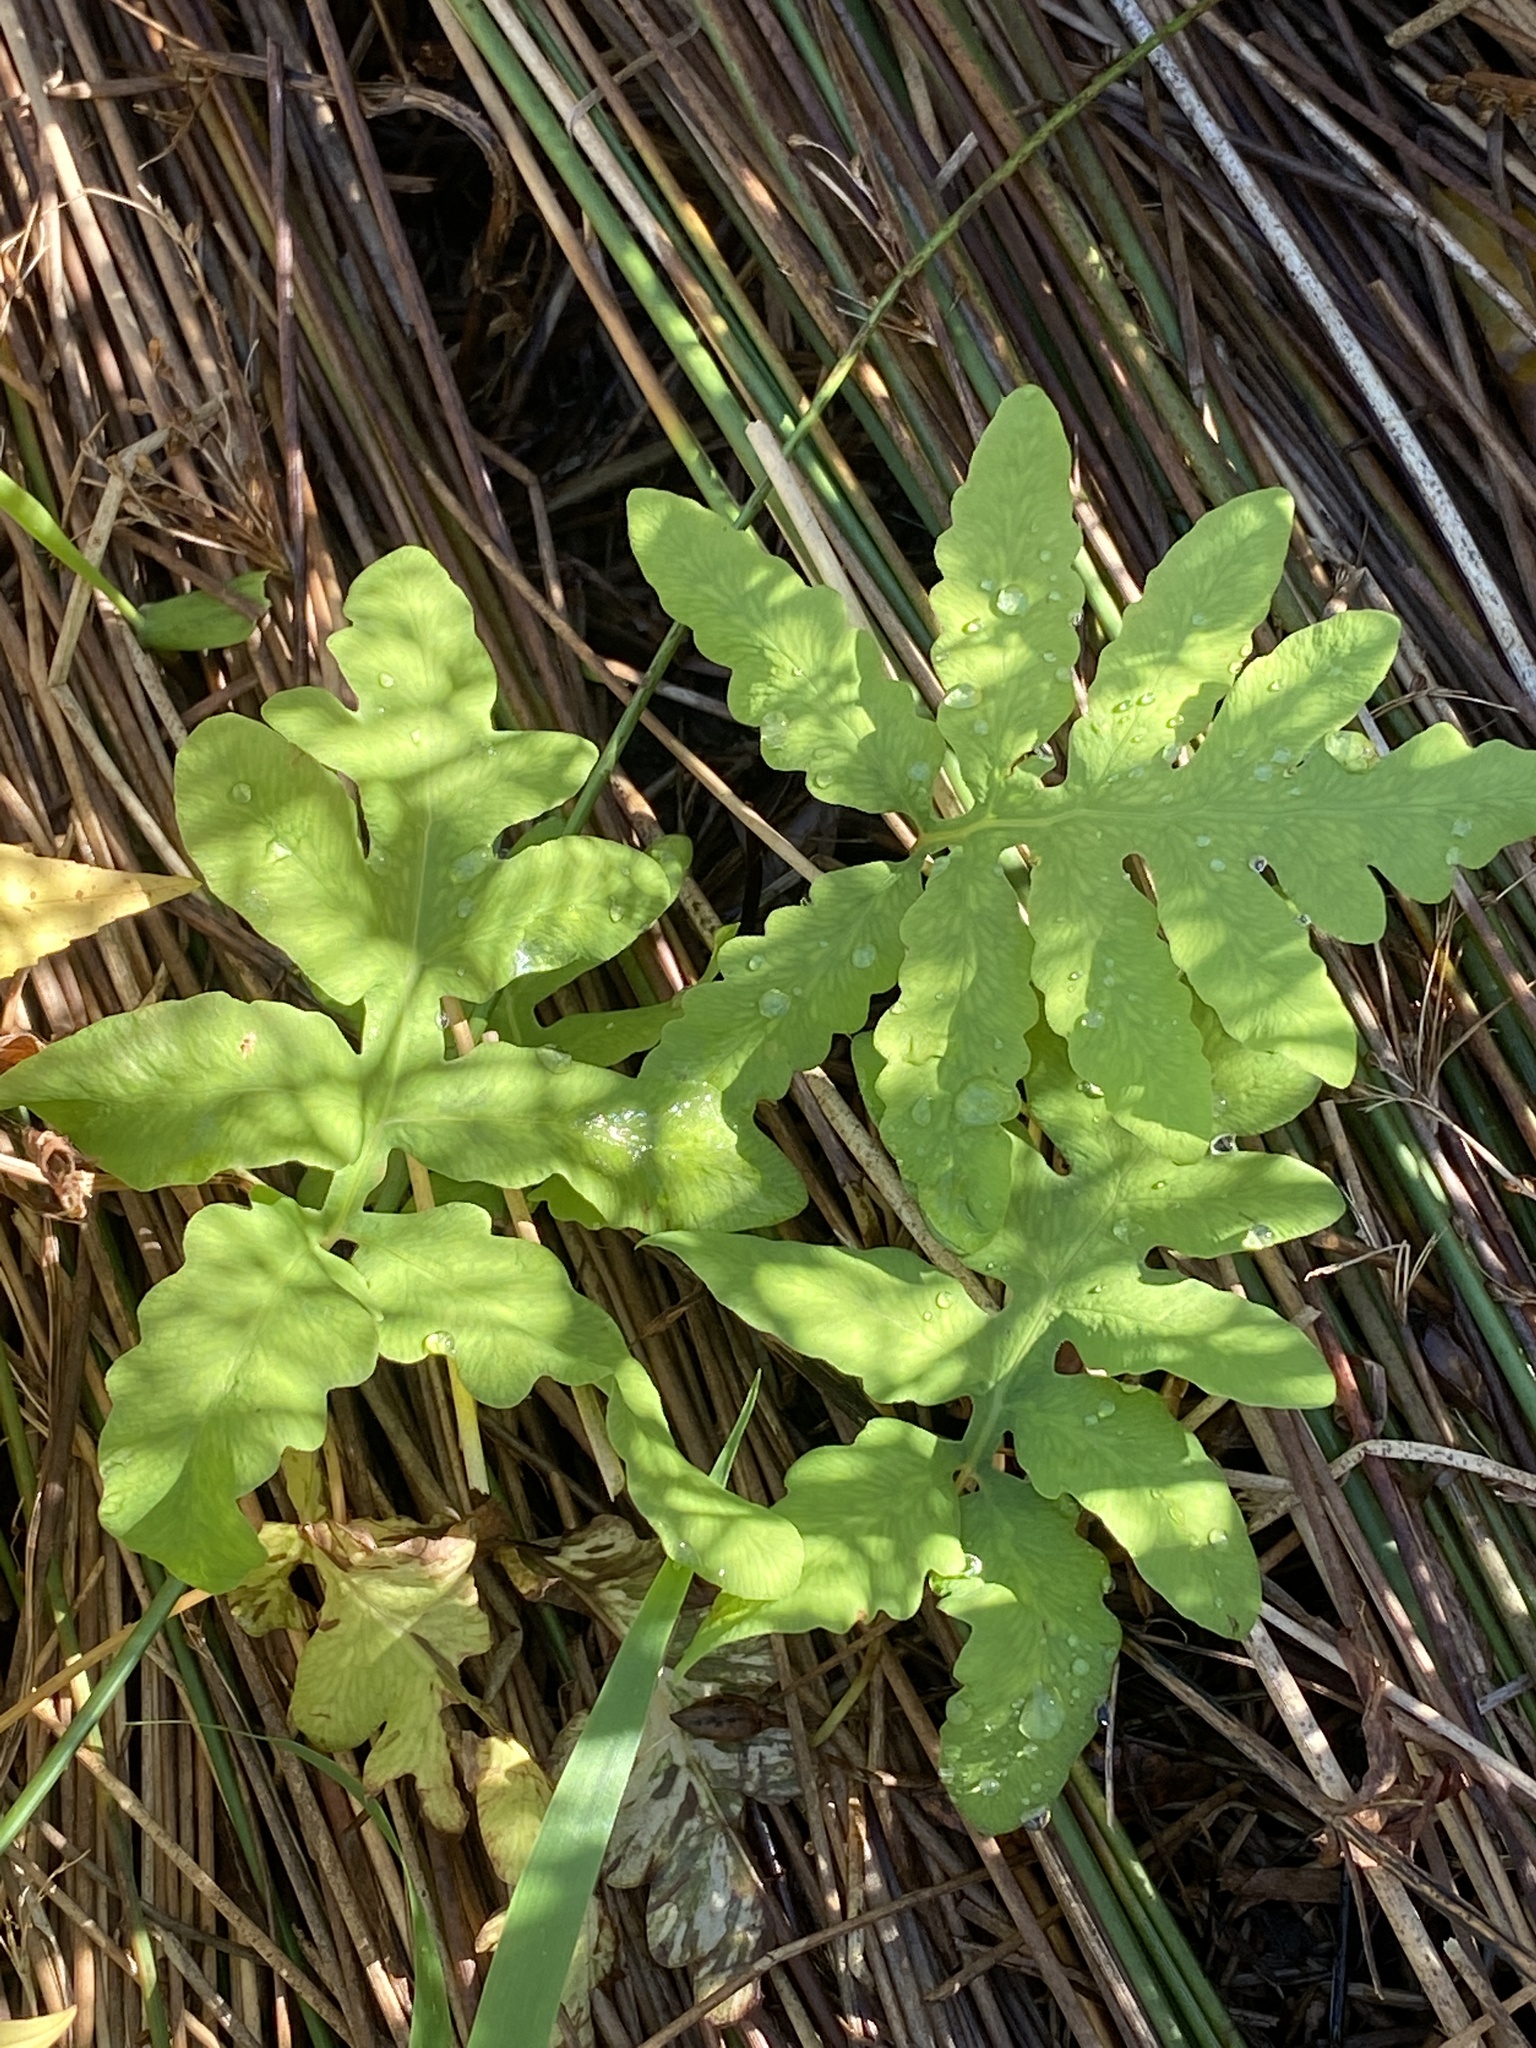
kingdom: Plantae
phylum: Tracheophyta
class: Polypodiopsida
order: Polypodiales
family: Onocleaceae
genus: Onoclea
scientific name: Onoclea sensibilis
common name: Sensitive fern
